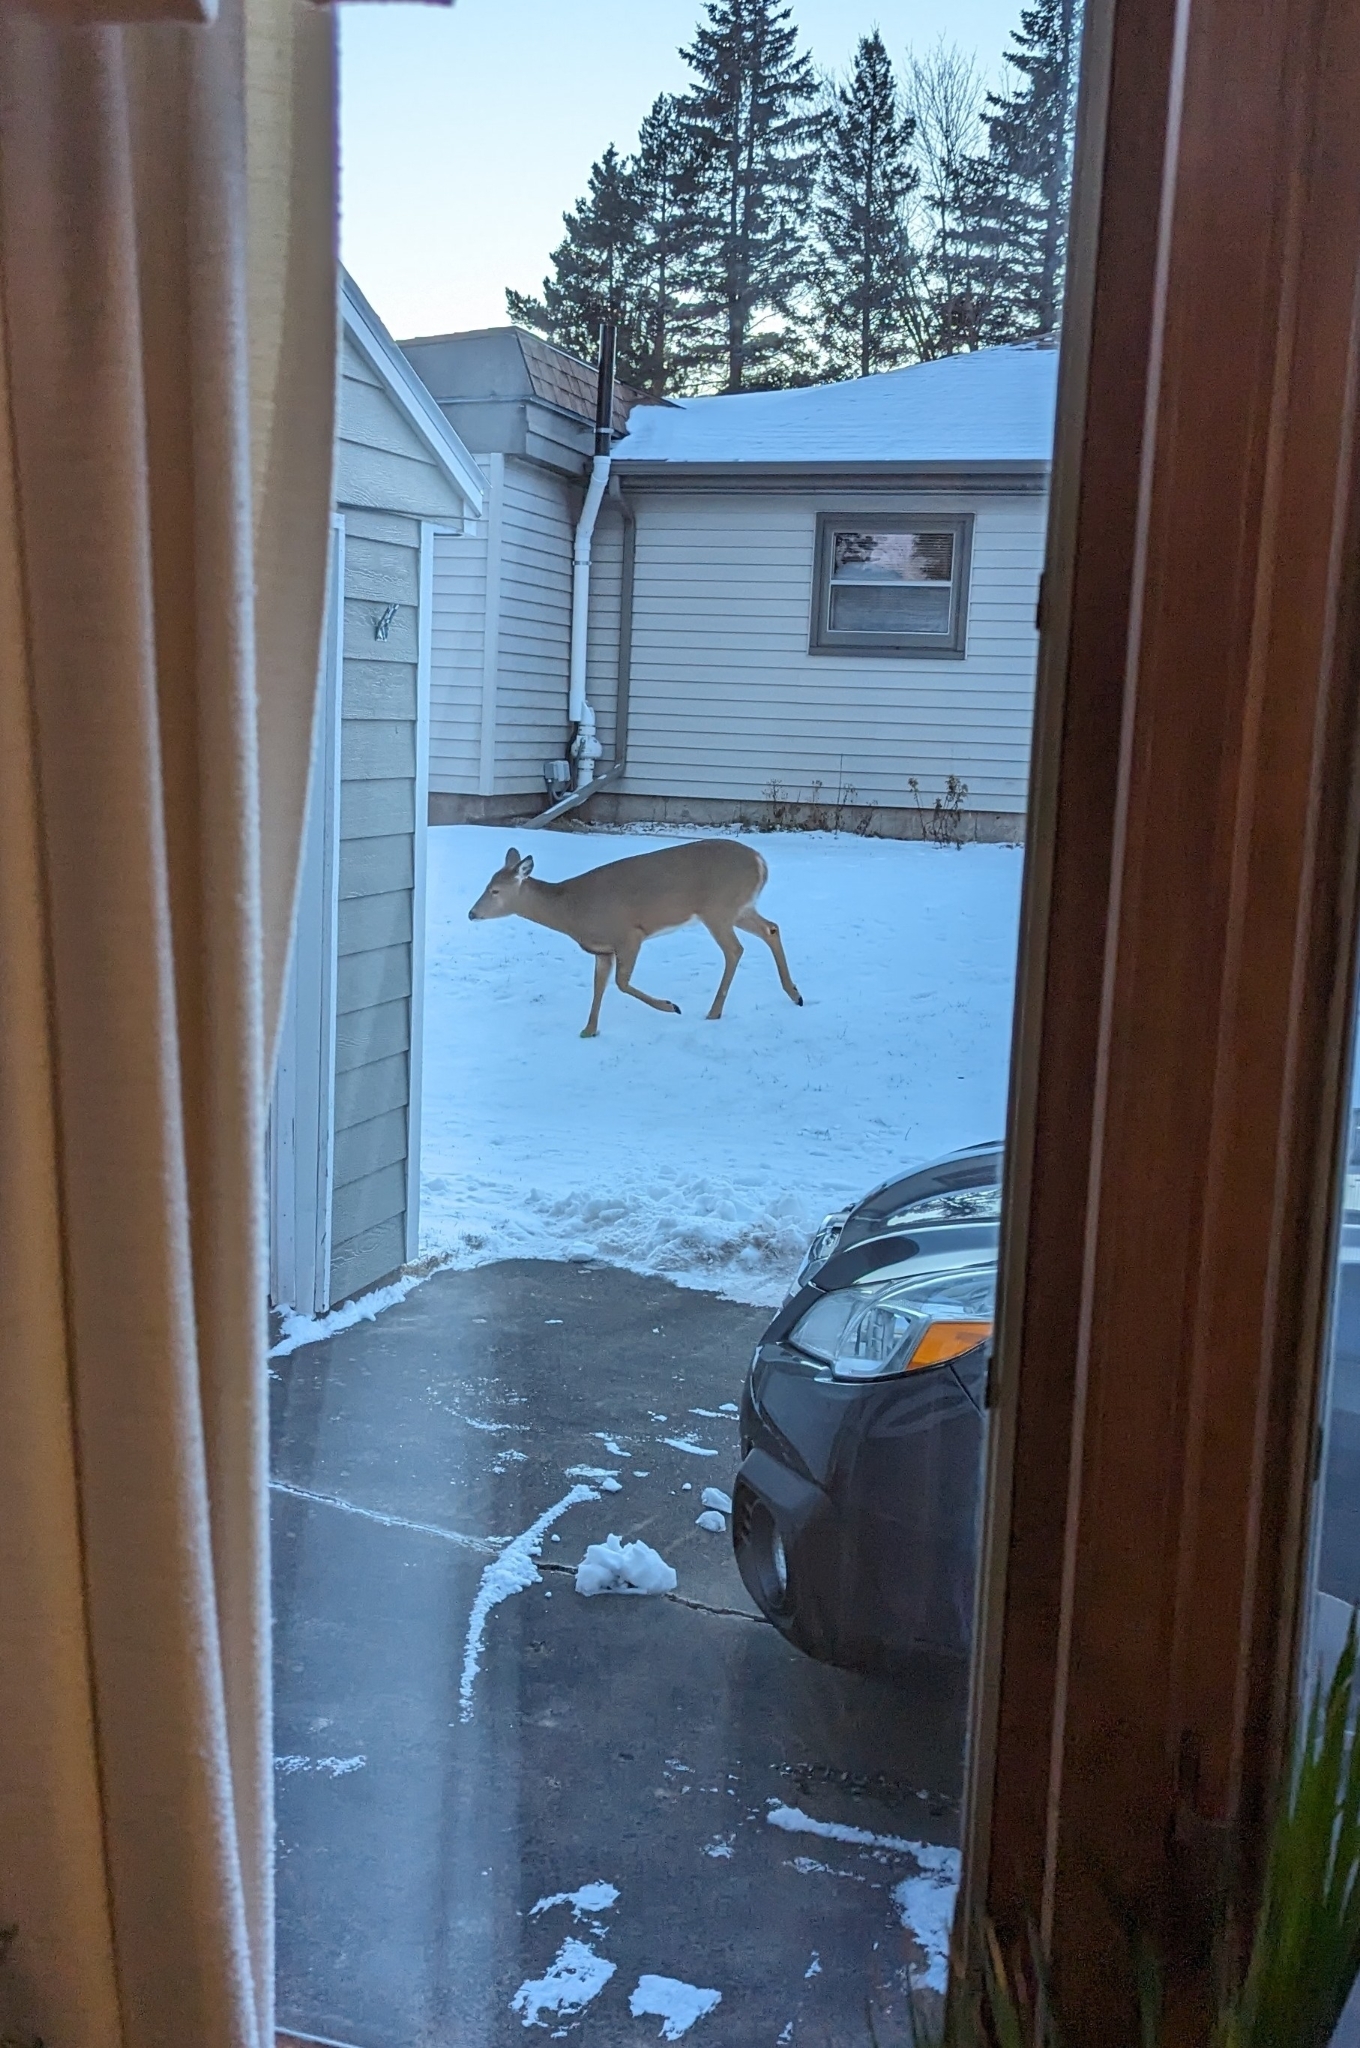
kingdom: Animalia
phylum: Chordata
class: Mammalia
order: Artiodactyla
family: Cervidae
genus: Odocoileus
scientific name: Odocoileus virginianus
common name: White-tailed deer
